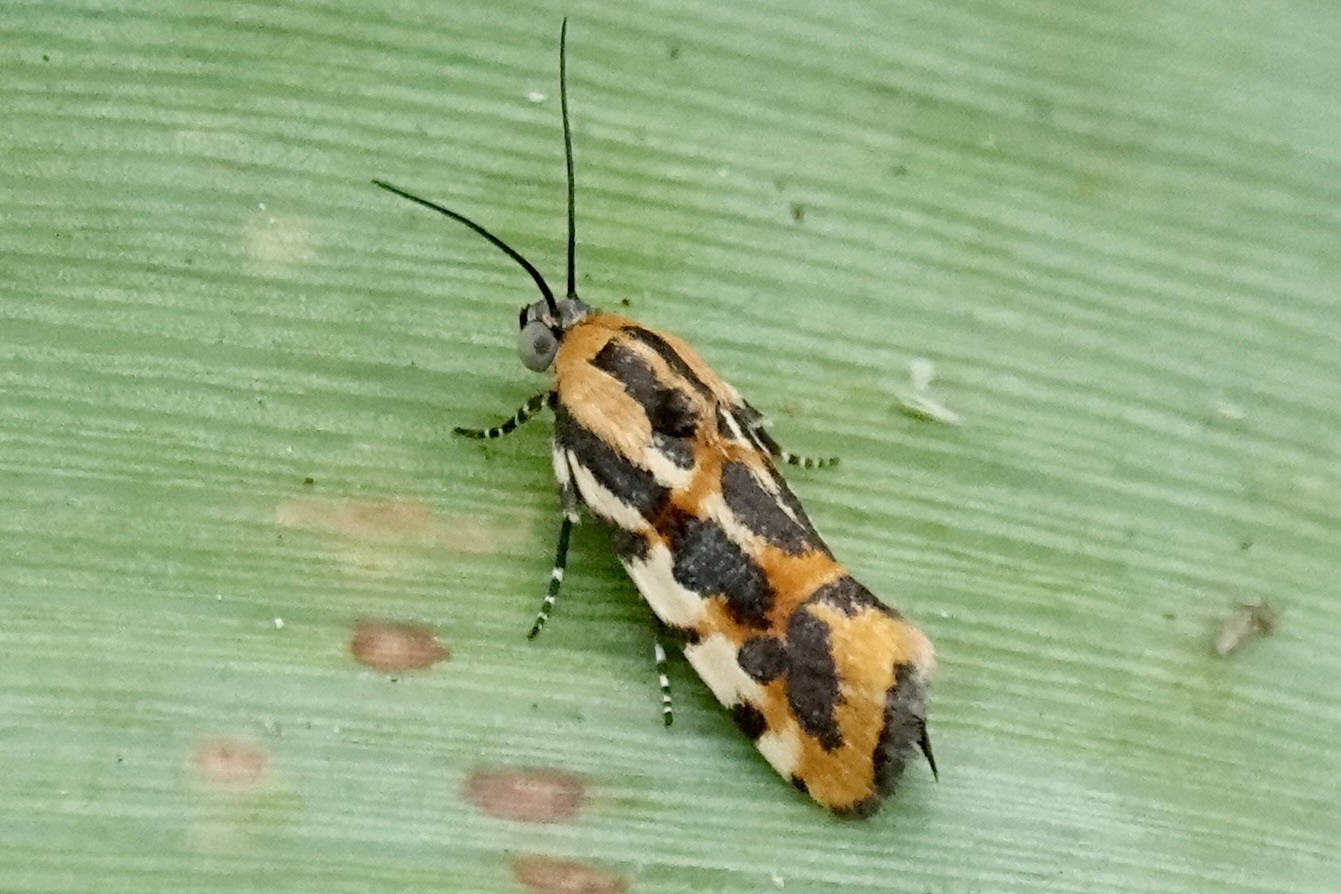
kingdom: Animalia
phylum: Arthropoda
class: Insecta
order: Lepidoptera
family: Noctuidae
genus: Acontia
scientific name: Acontia leo
